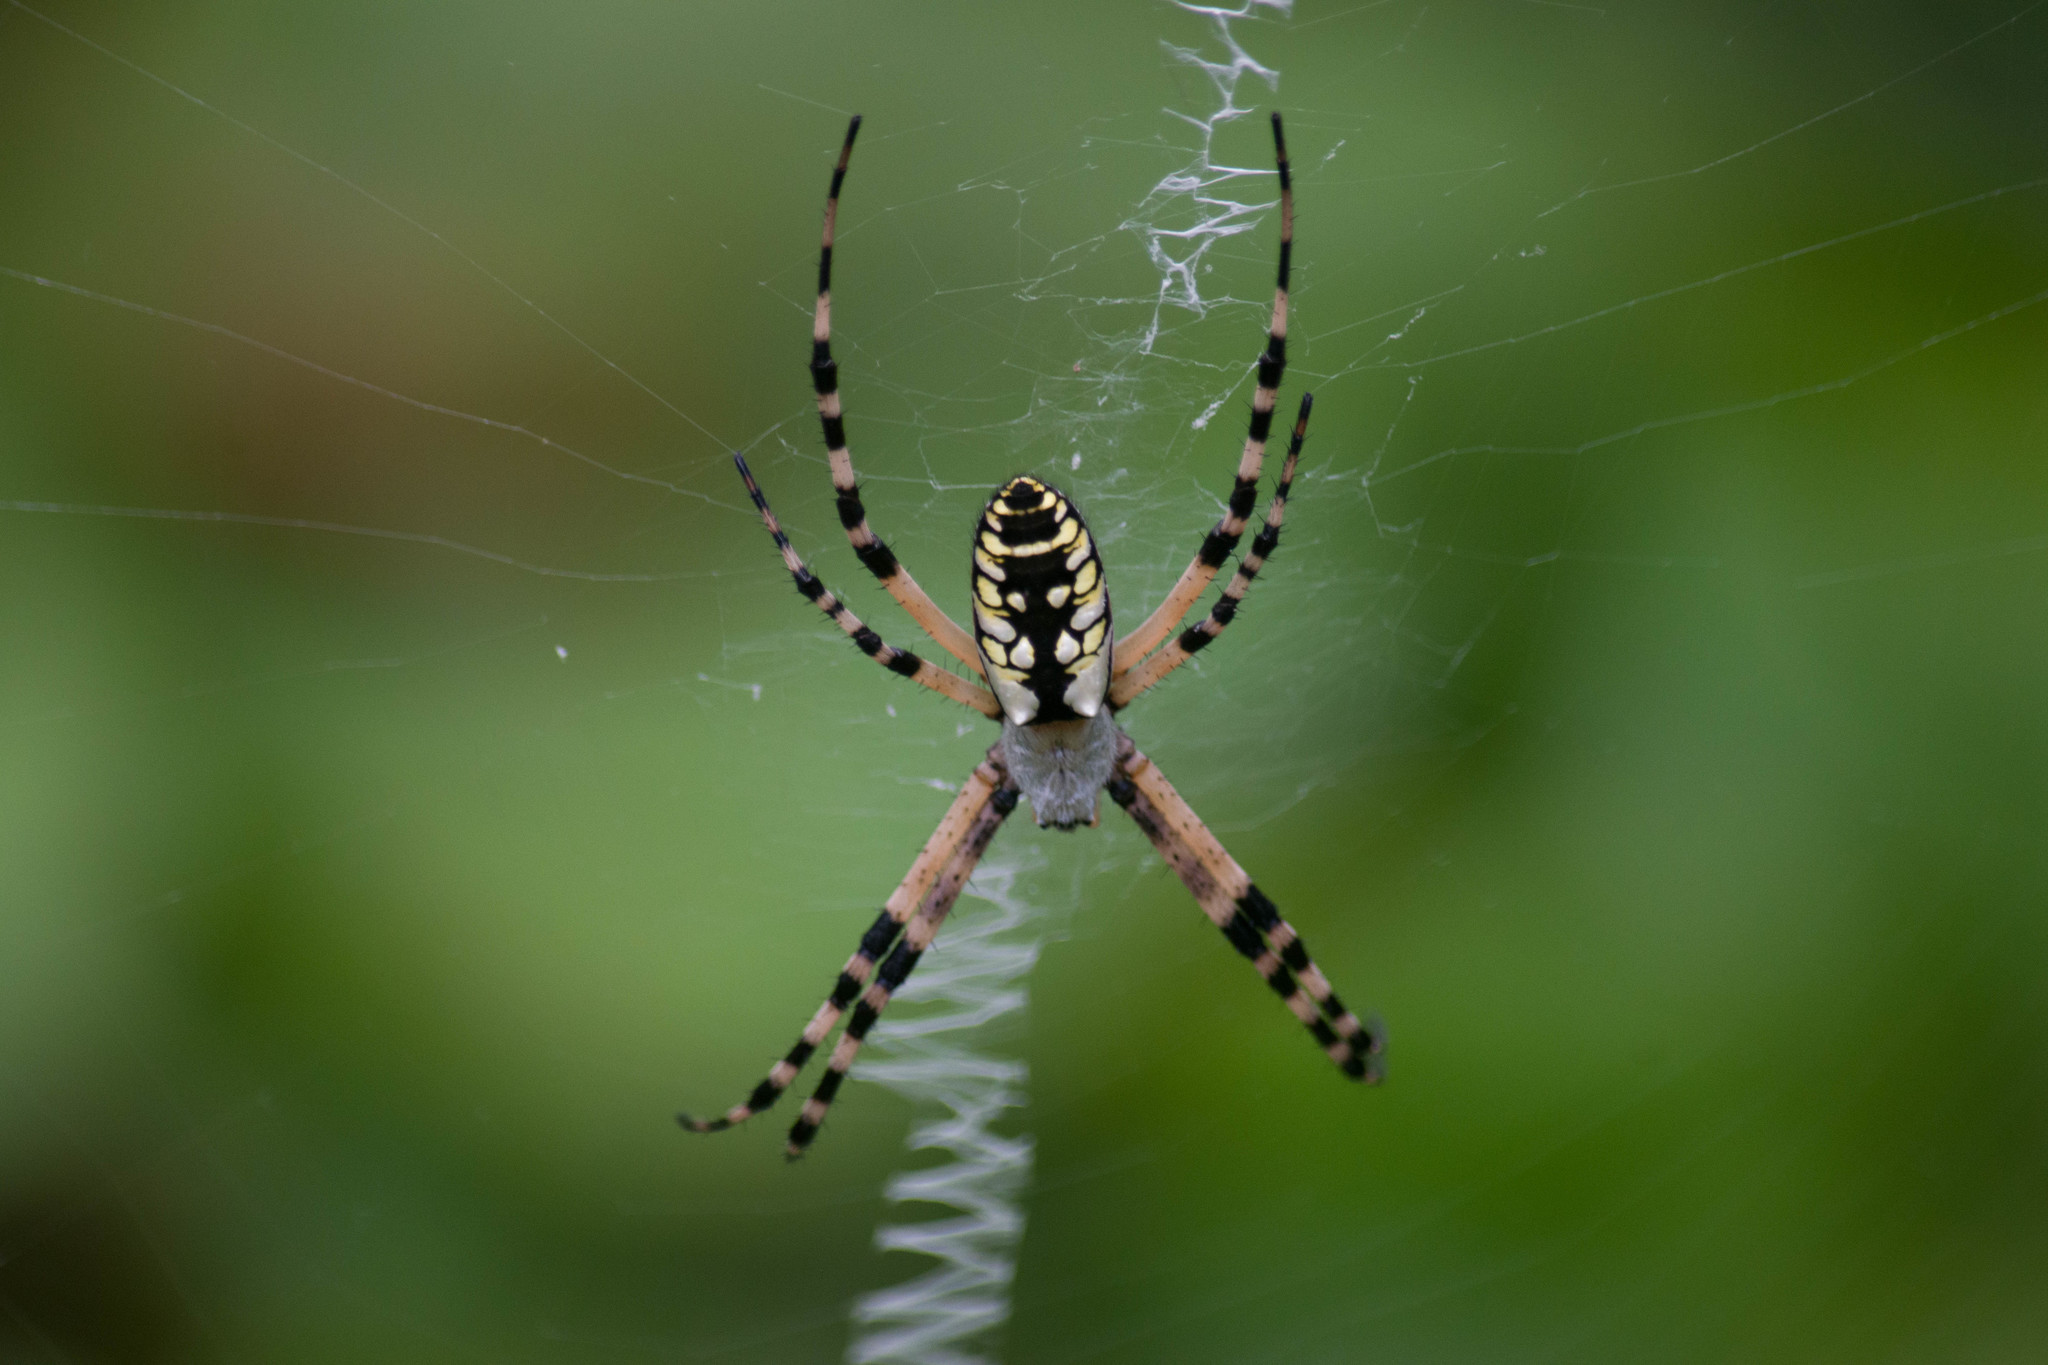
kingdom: Animalia
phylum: Arthropoda
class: Arachnida
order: Araneae
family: Araneidae
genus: Argiope
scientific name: Argiope aurantia
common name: Orb weavers
